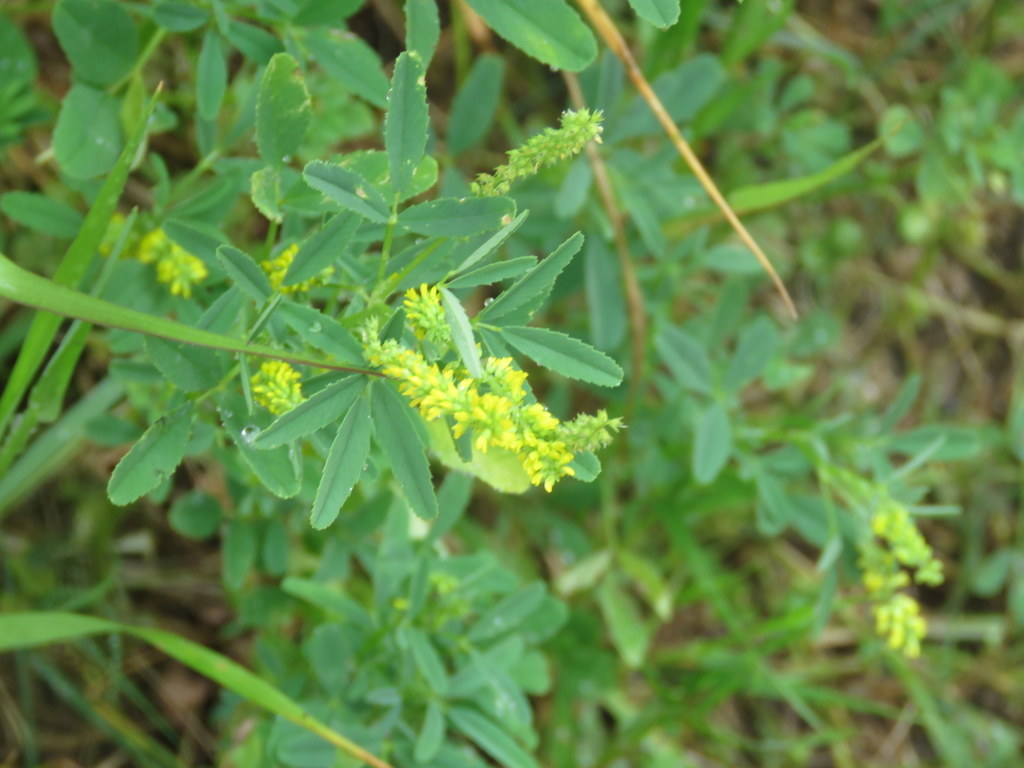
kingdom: Plantae
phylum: Tracheophyta
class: Magnoliopsida
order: Fabales
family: Fabaceae
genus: Melilotus
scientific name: Melilotus indicus
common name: Small melilot
